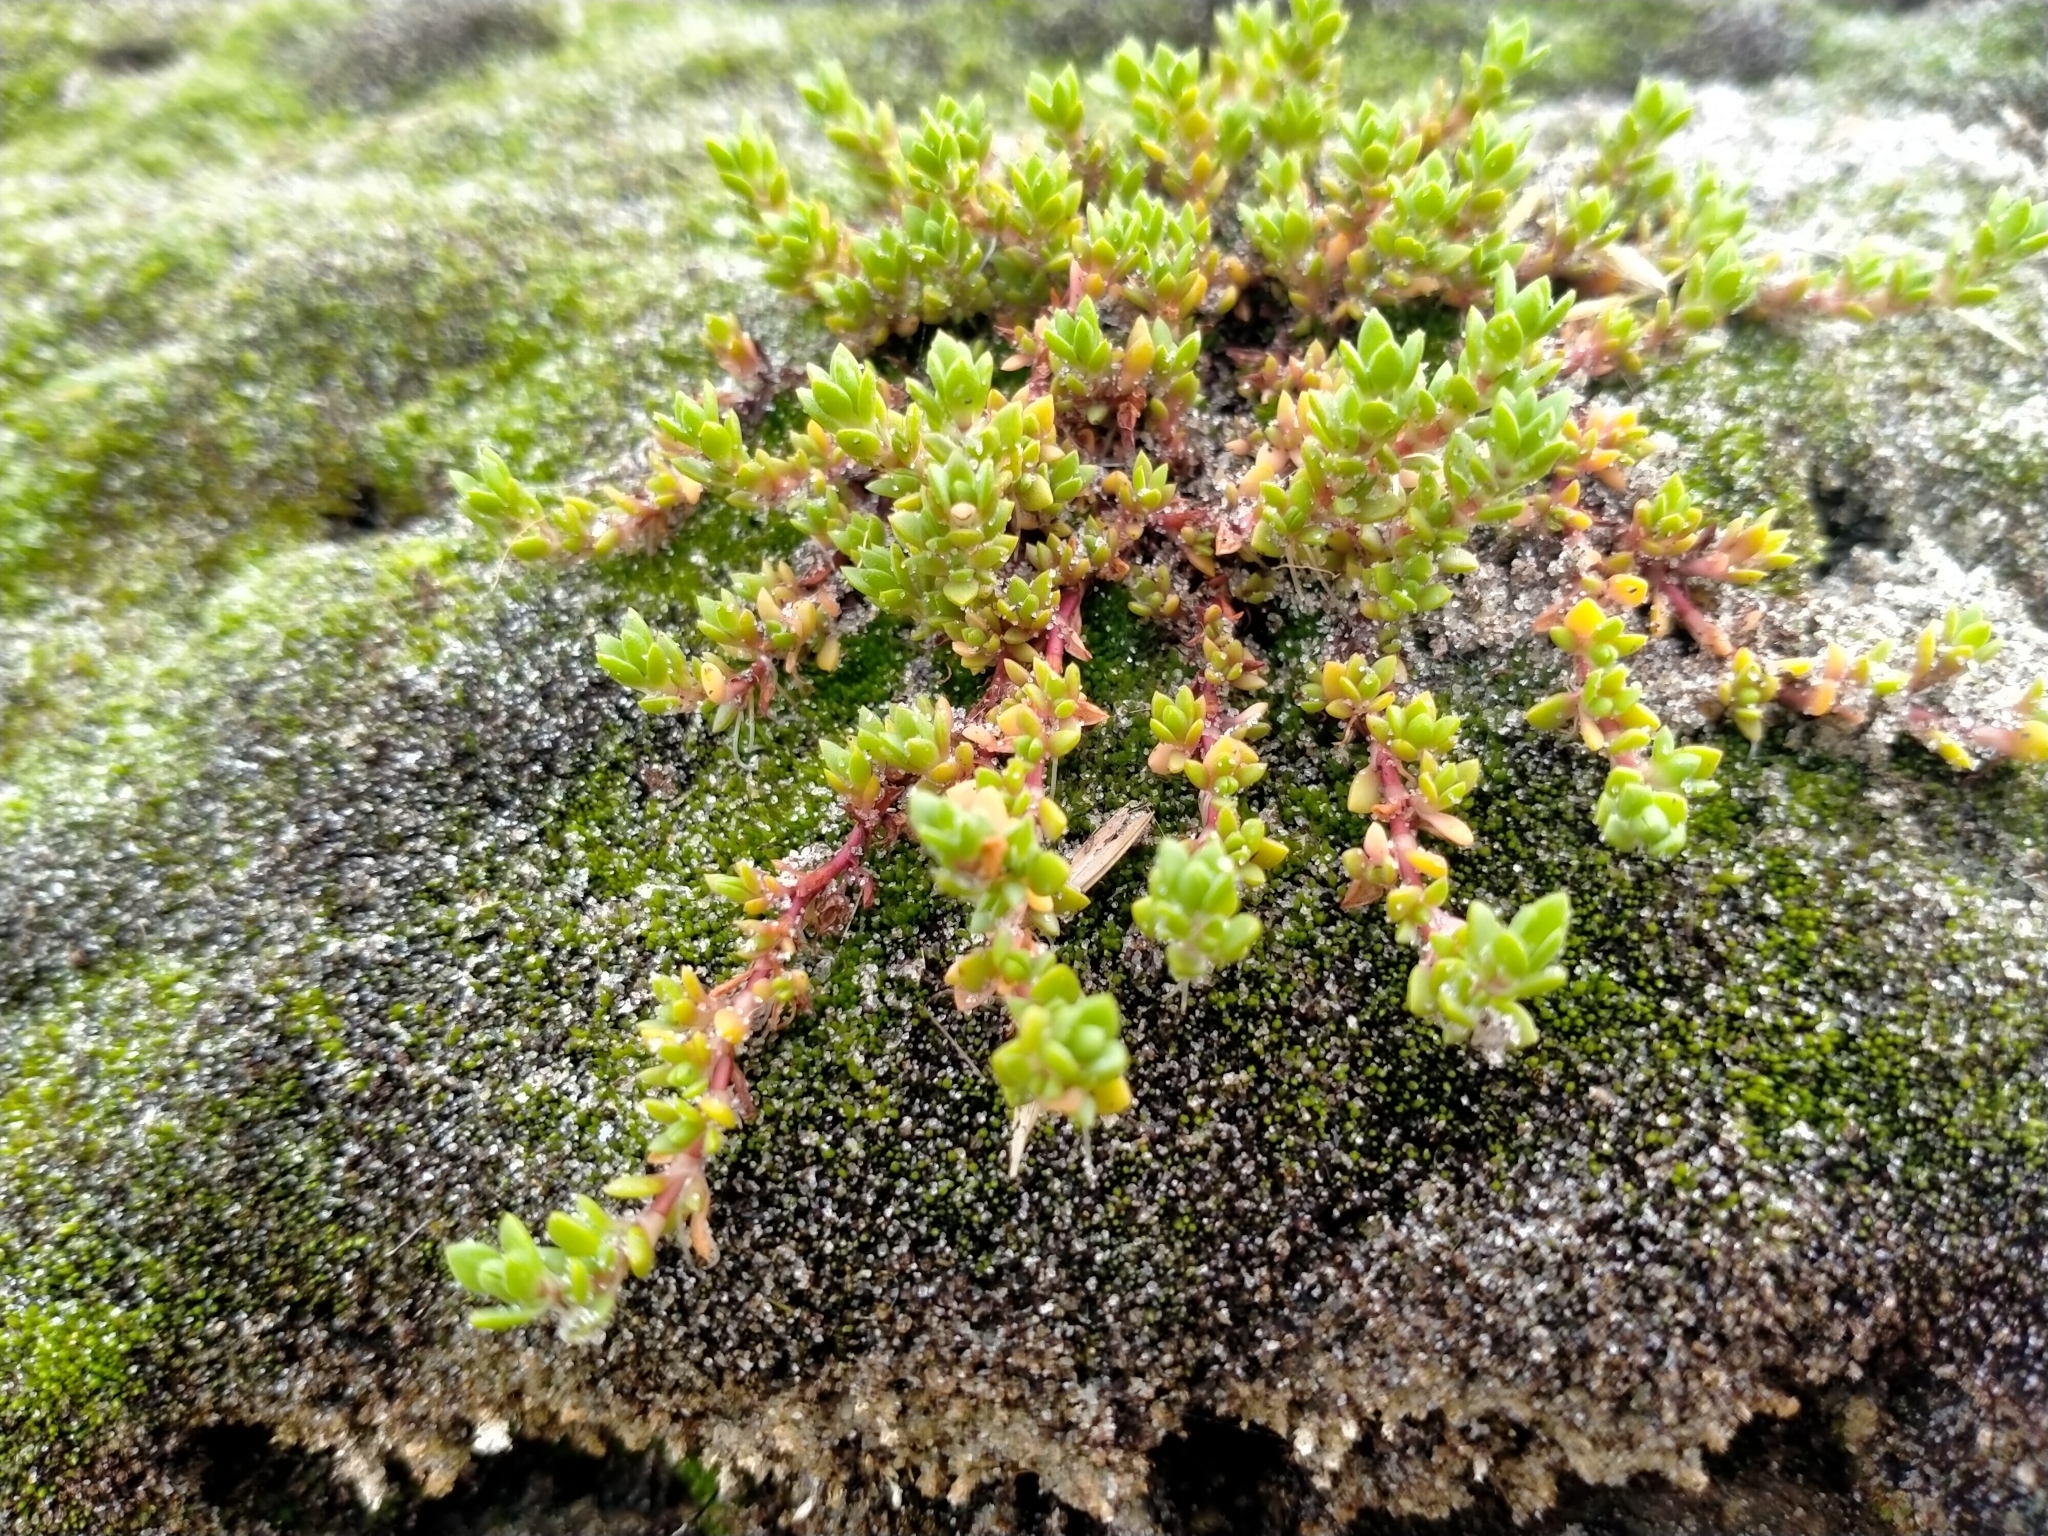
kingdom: Plantae
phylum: Tracheophyta
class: Magnoliopsida
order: Saxifragales
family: Crassulaceae
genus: Crassula
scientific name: Crassula moschata
